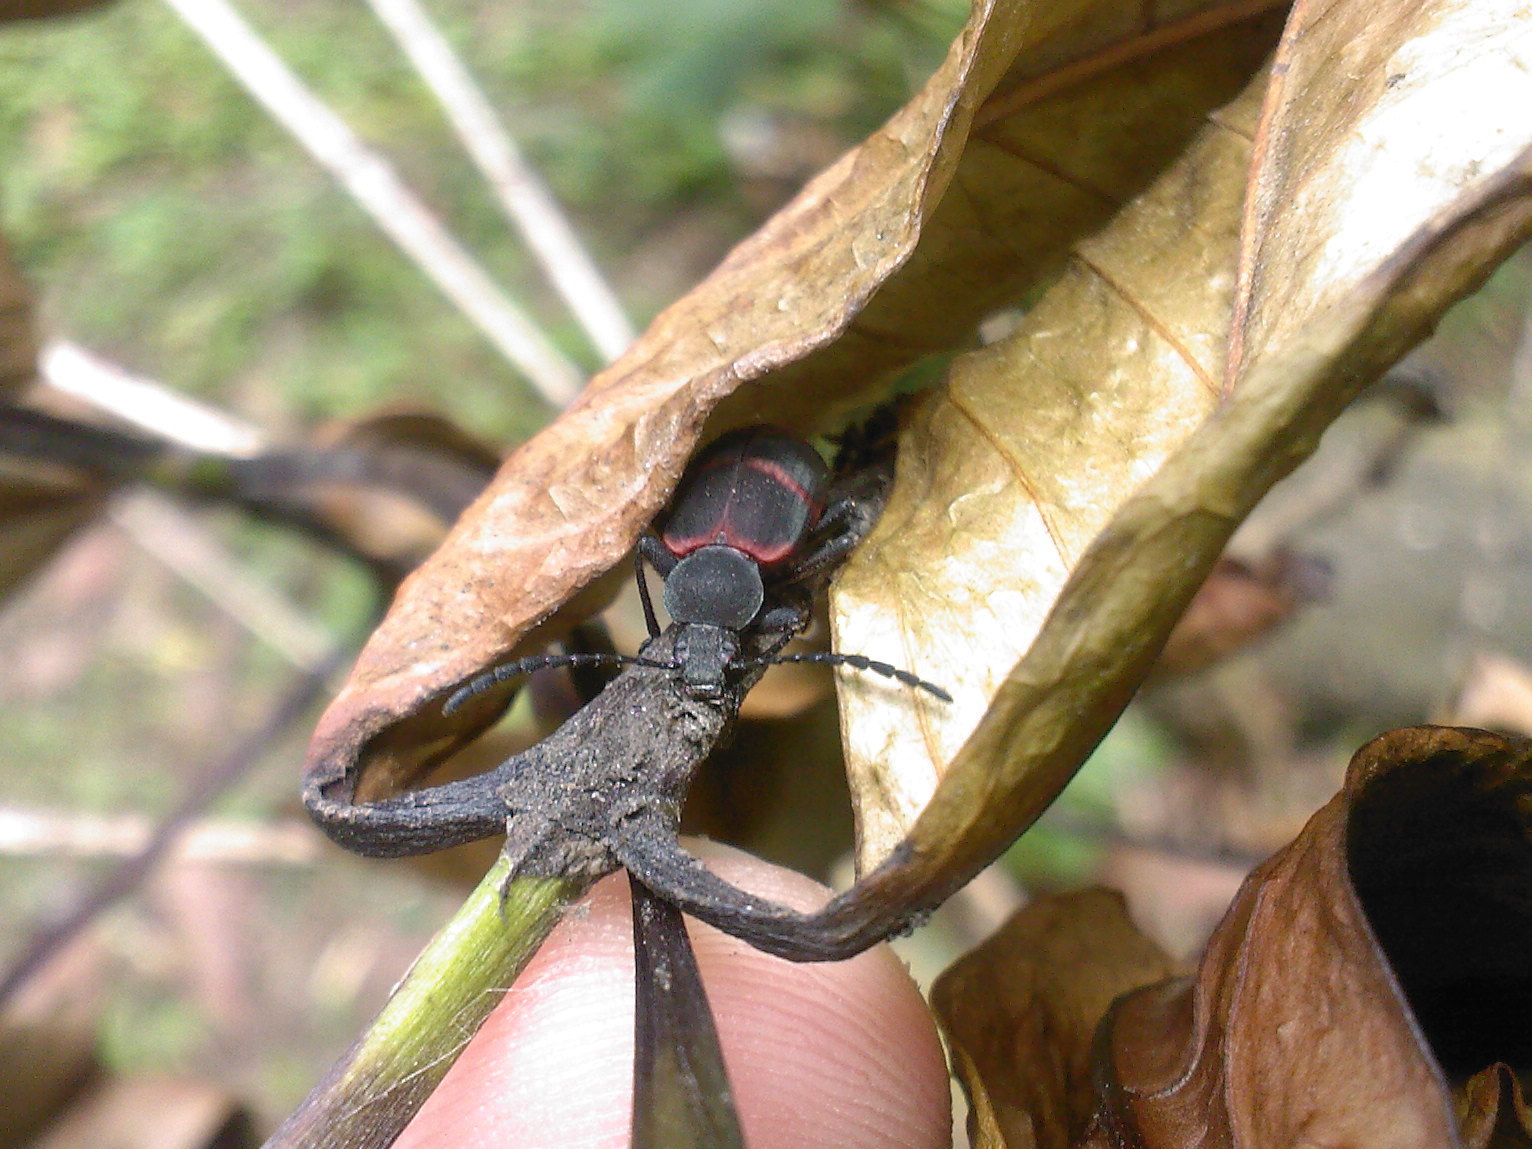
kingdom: Animalia
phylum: Arthropoda
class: Insecta
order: Coleoptera
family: Tenebrionidae
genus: Lystronychus
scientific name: Lystronychus
